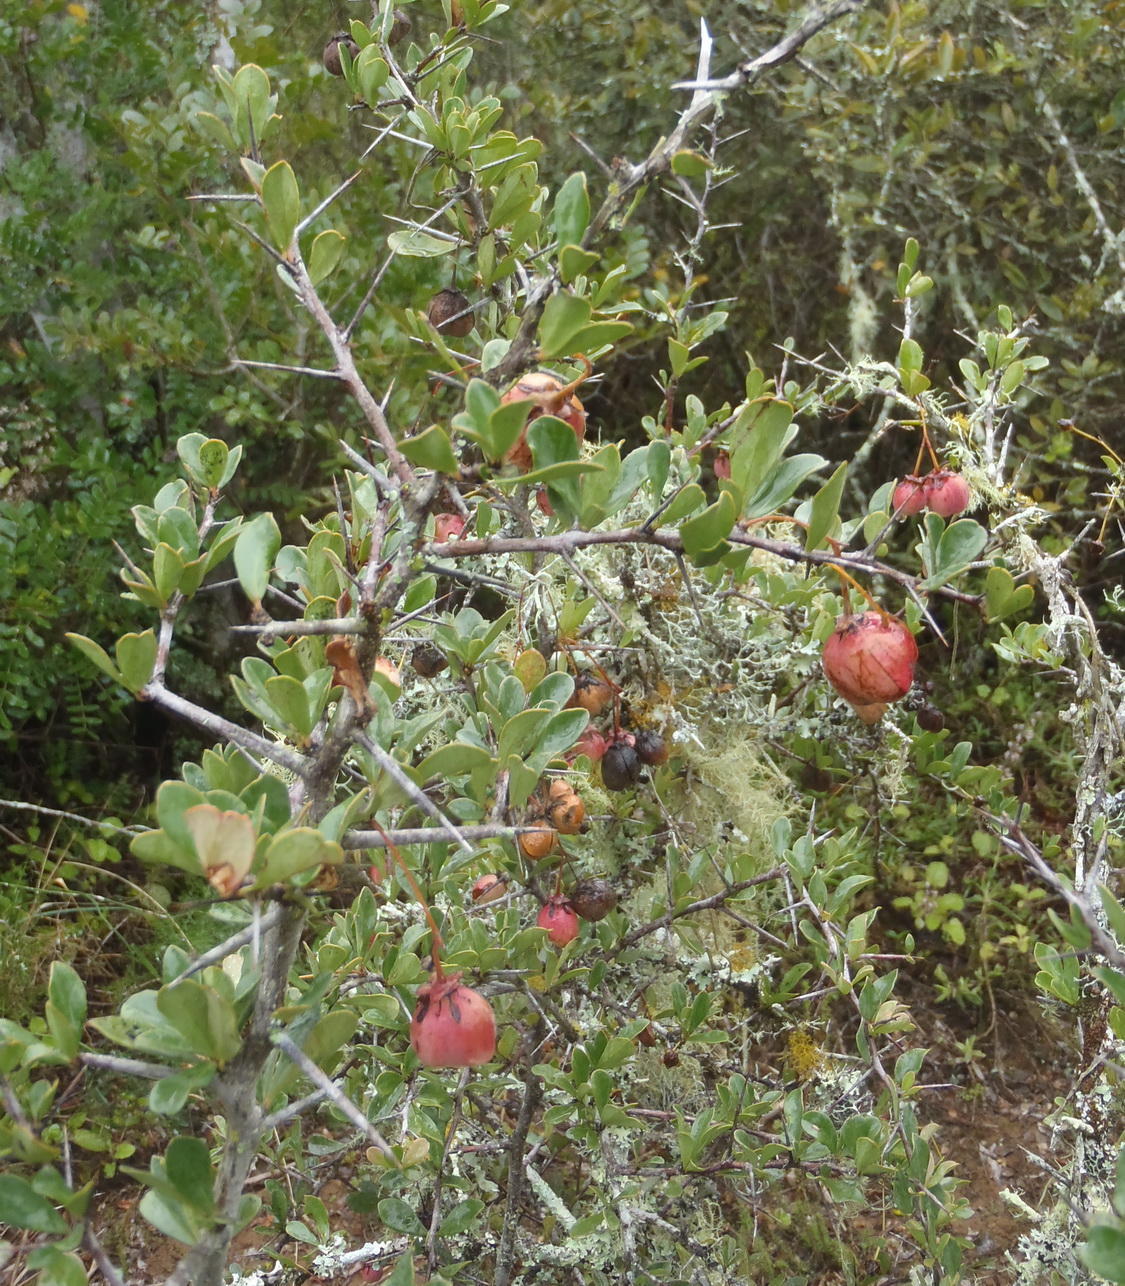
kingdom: Plantae
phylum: Tracheophyta
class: Magnoliopsida
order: Celastrales
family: Celastraceae
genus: Putterlickia
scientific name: Putterlickia pyracantha
